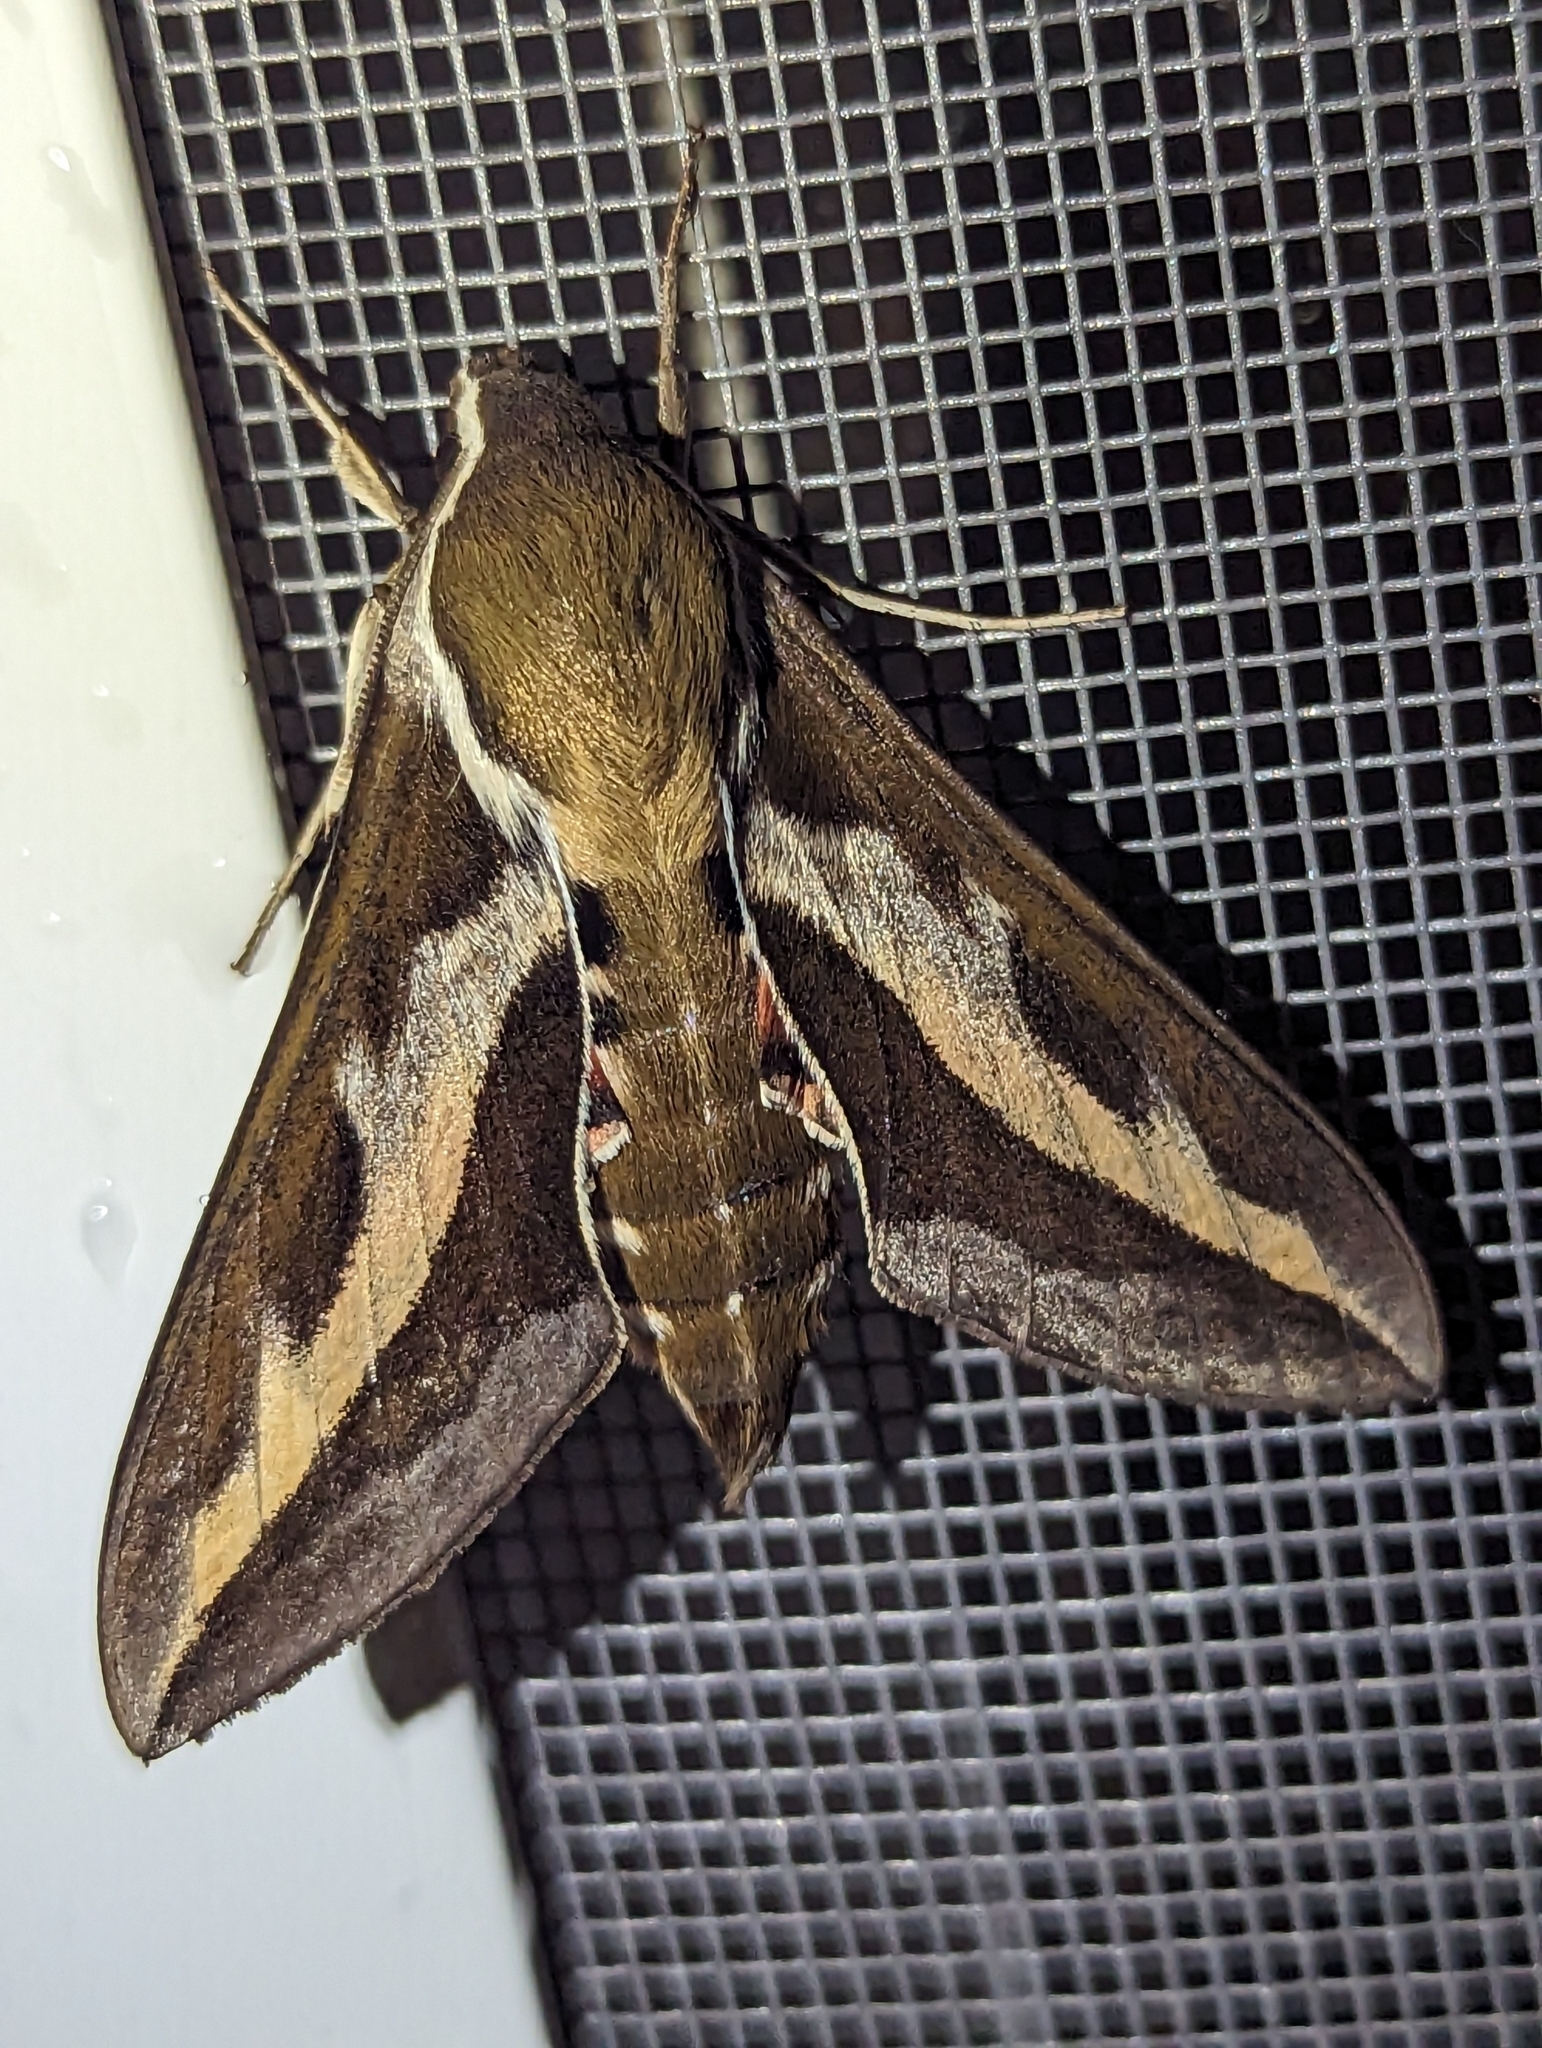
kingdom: Animalia
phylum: Arthropoda
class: Insecta
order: Lepidoptera
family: Sphingidae
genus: Hyles
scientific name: Hyles gallii
